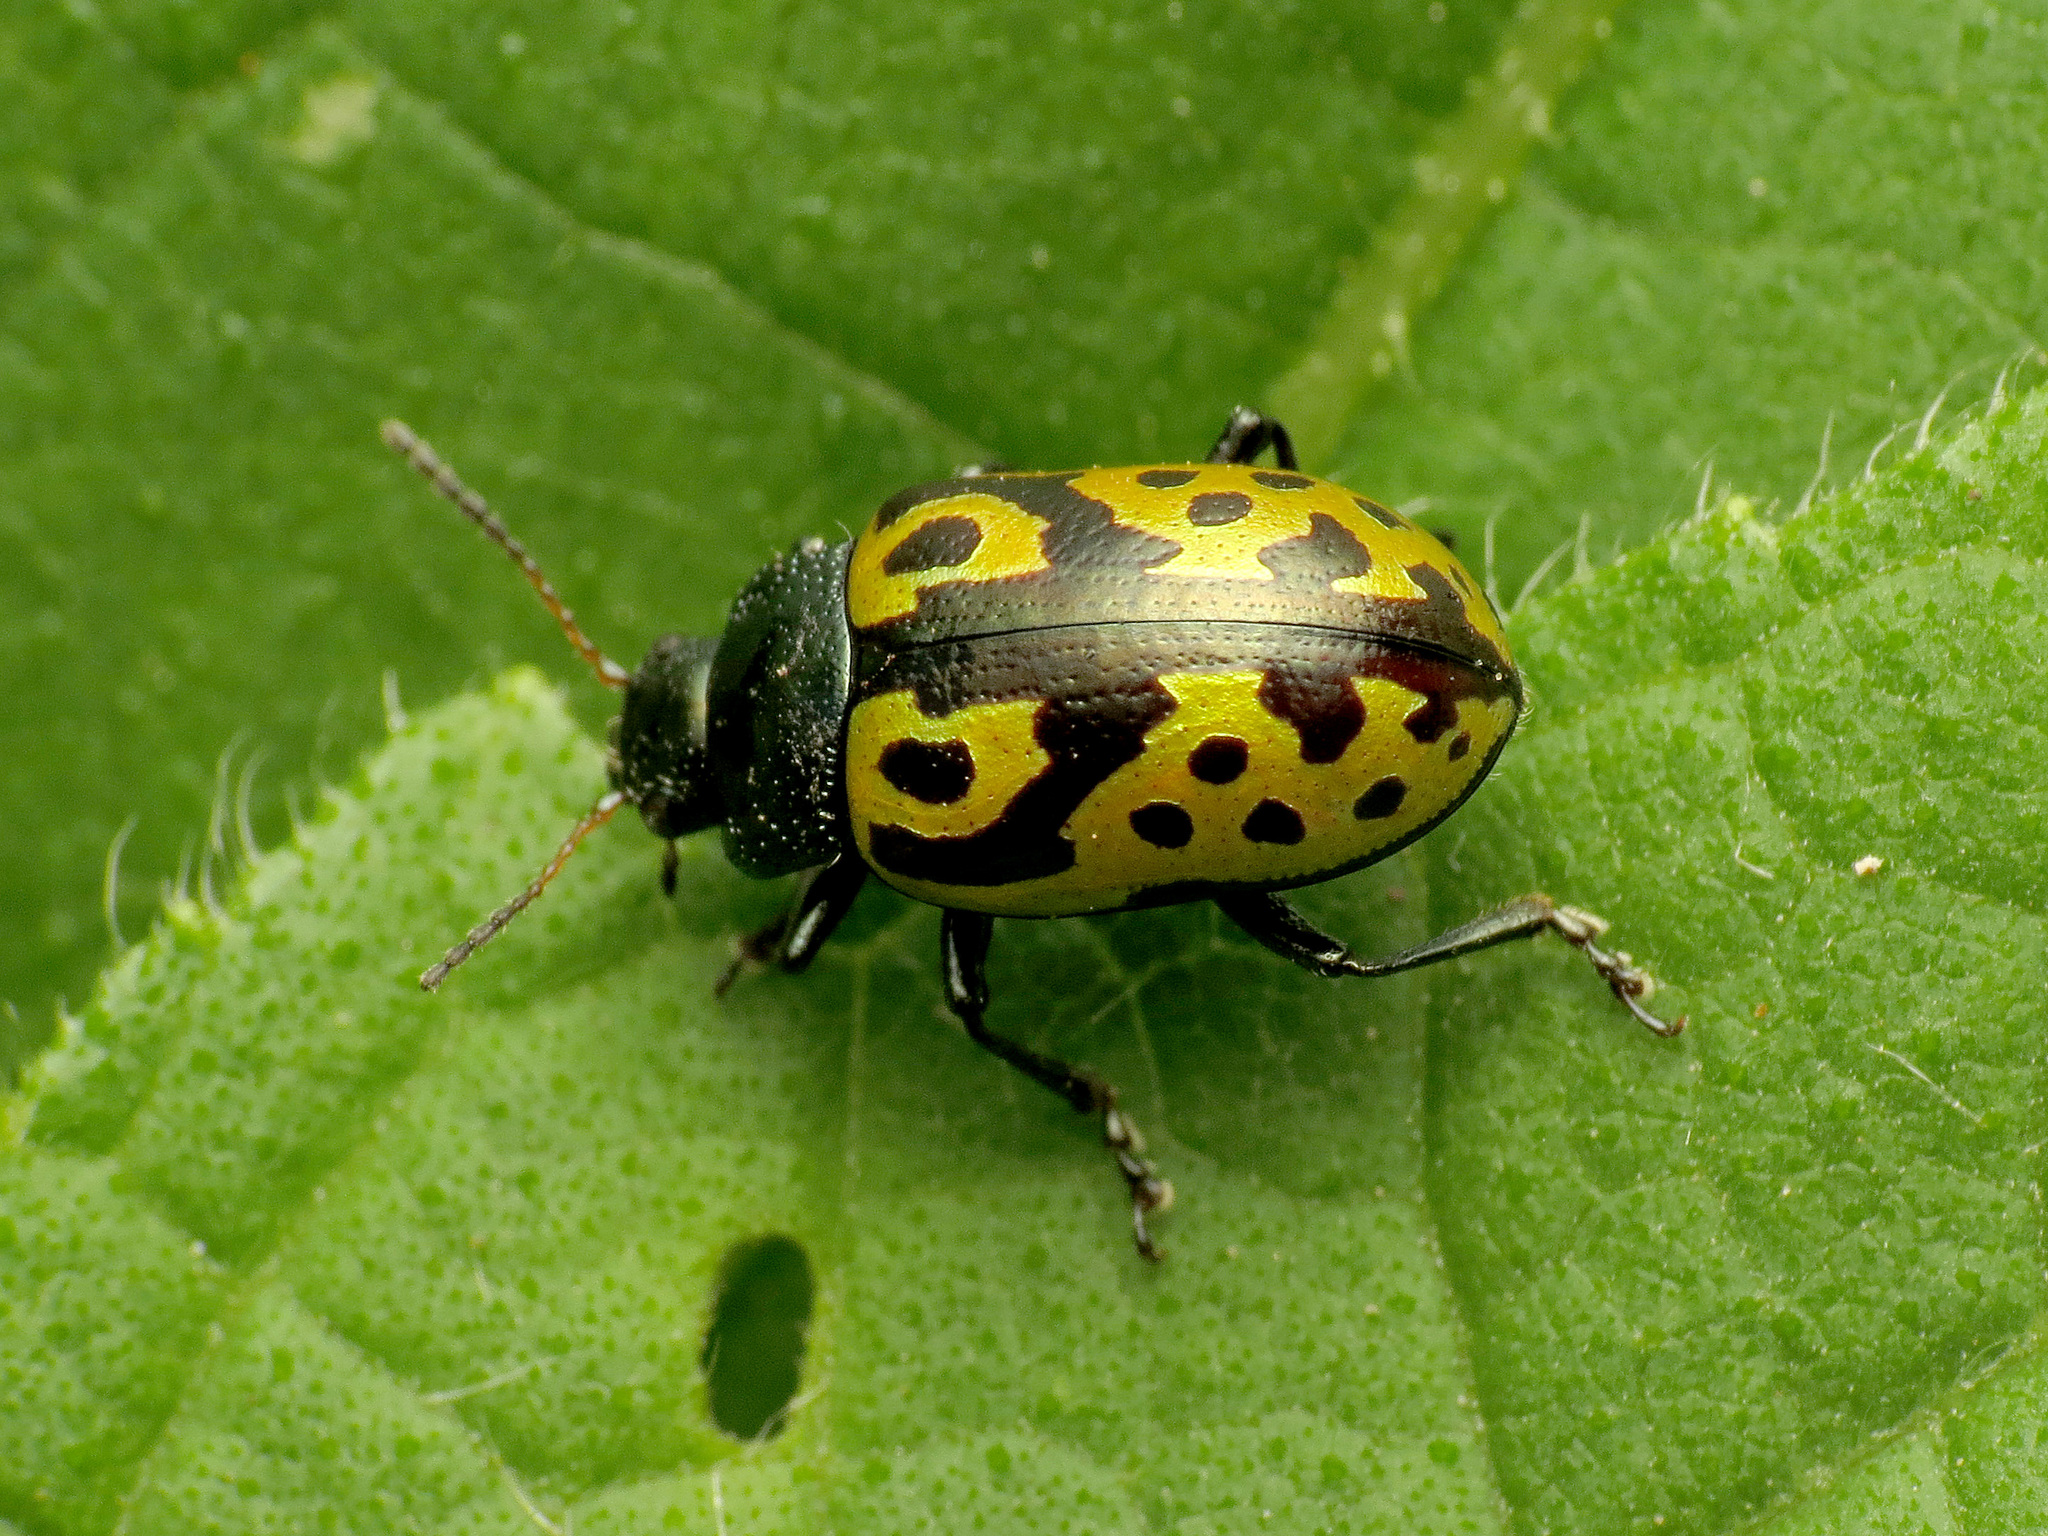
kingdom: Animalia
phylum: Arthropoda
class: Insecta
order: Coleoptera
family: Chrysomelidae
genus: Calligrapha
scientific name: Calligrapha
